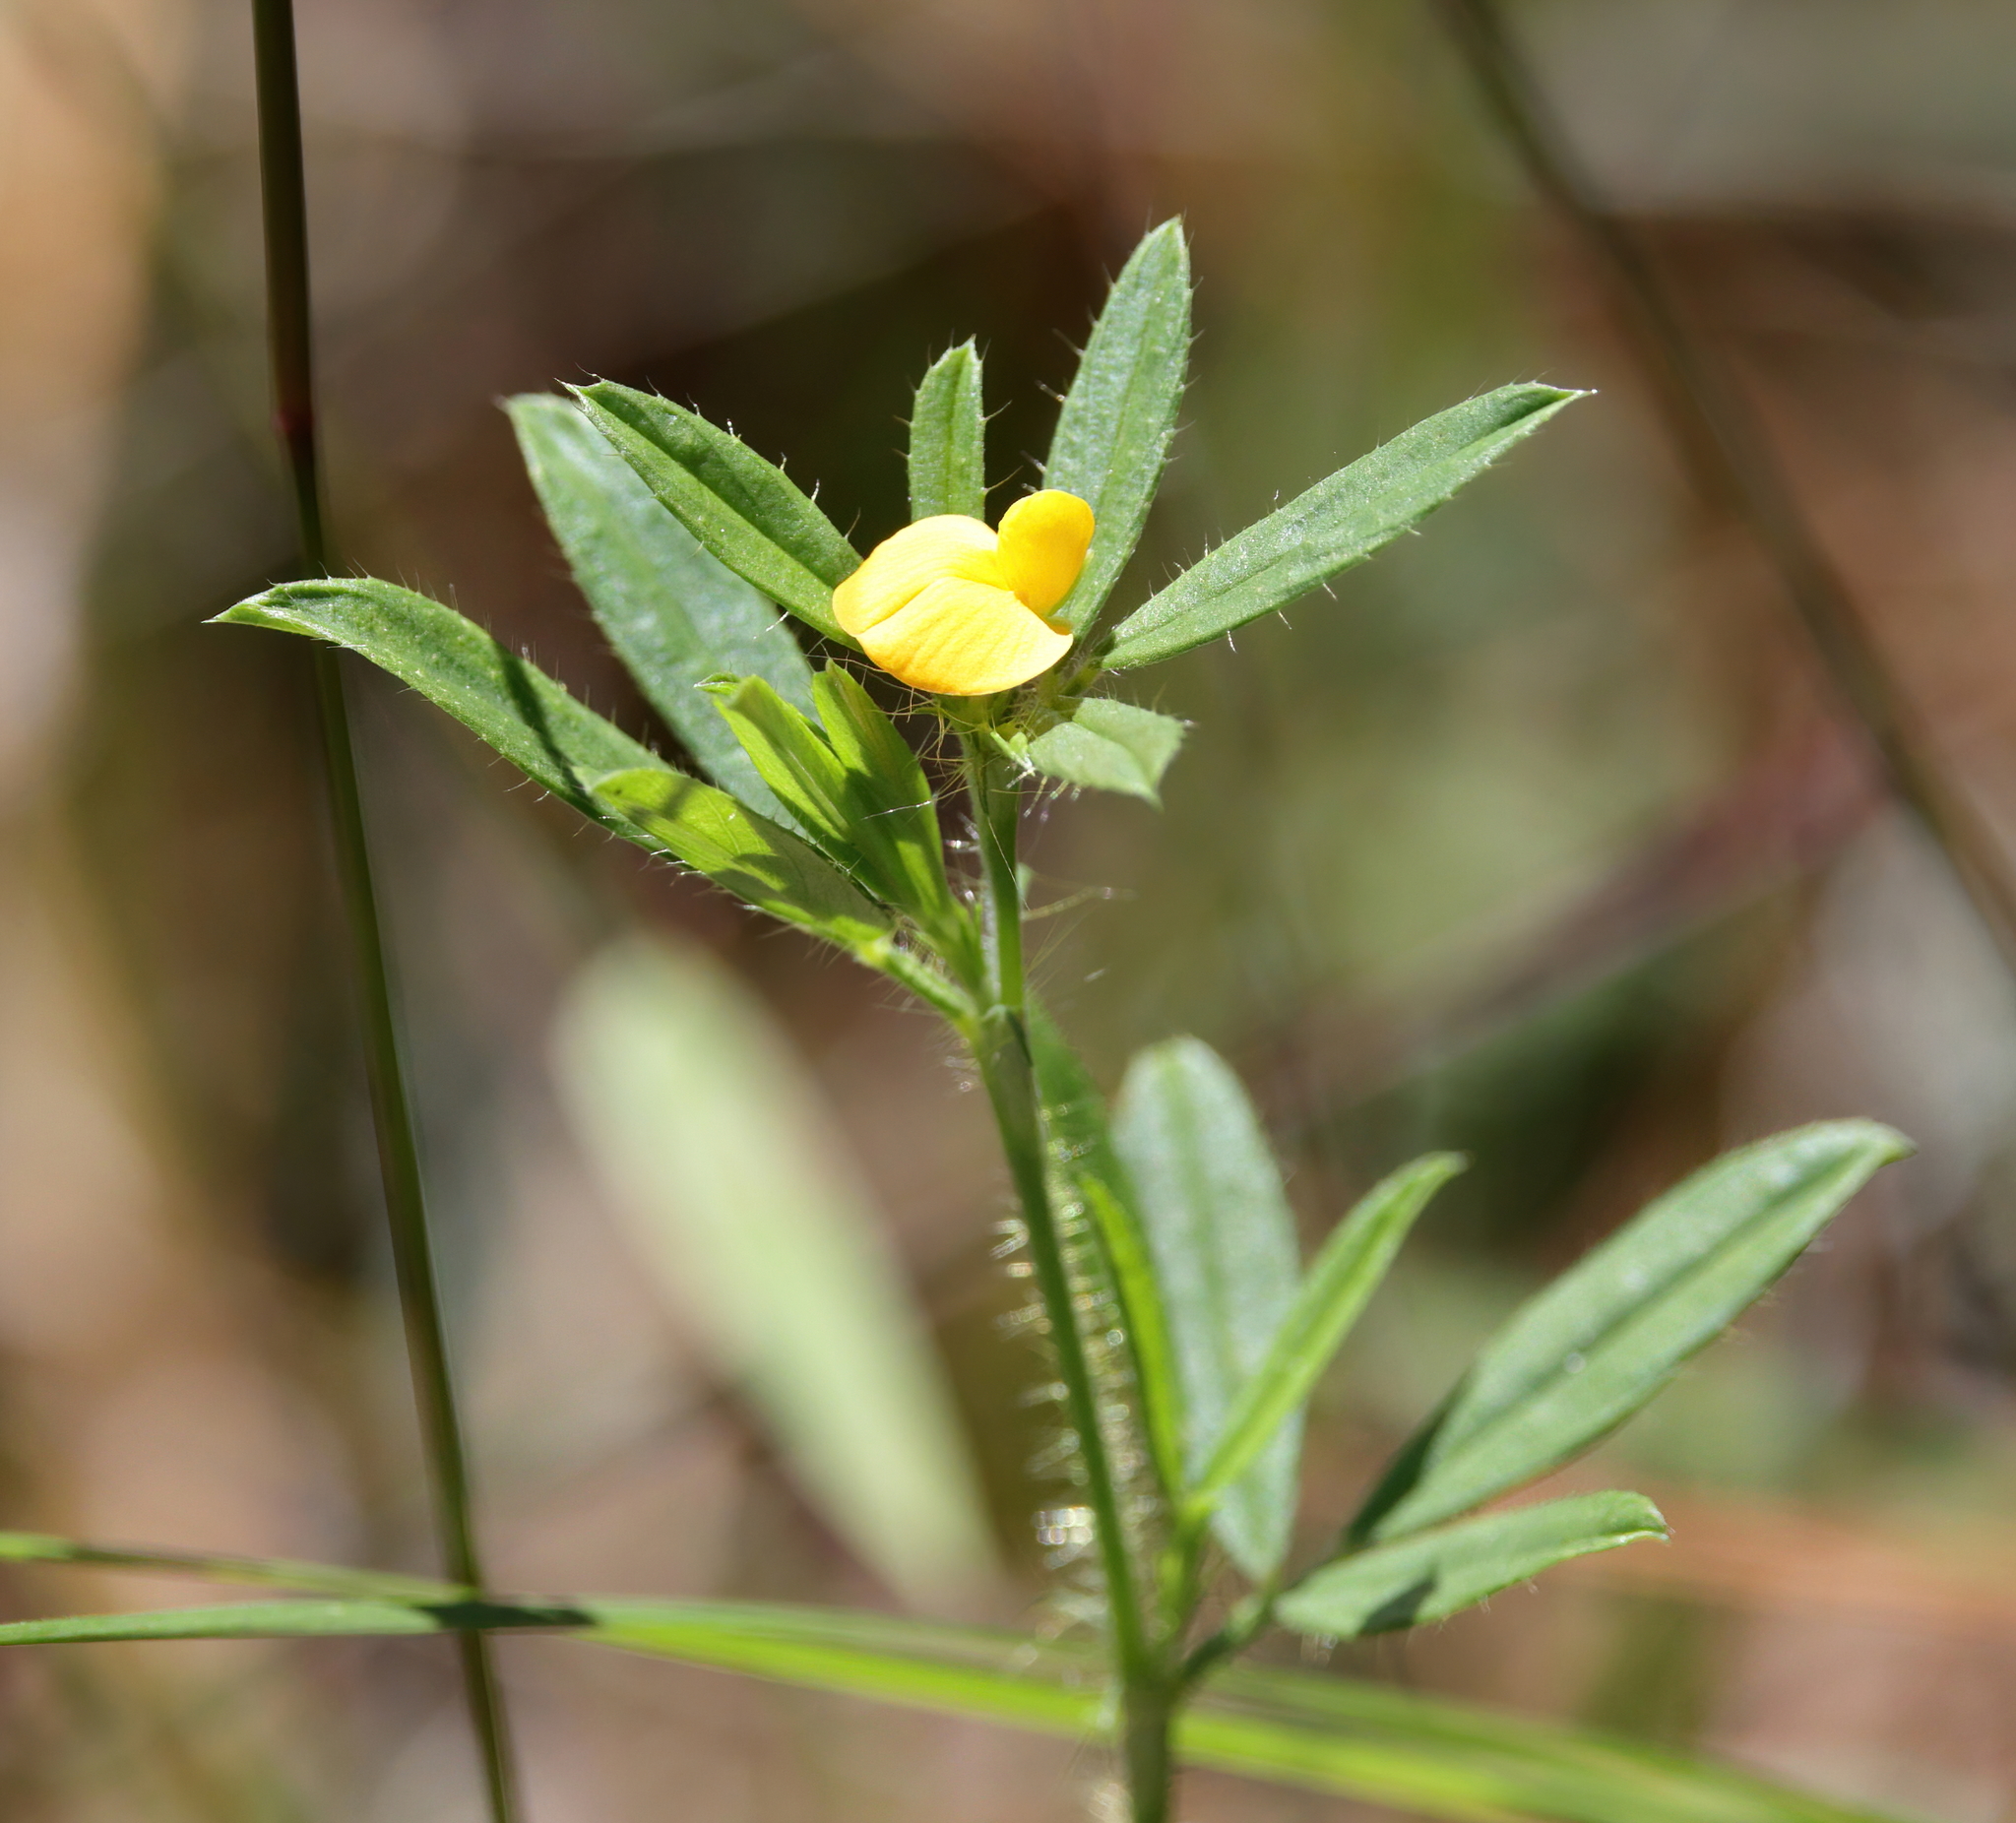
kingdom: Plantae
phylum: Tracheophyta
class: Magnoliopsida
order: Fabales
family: Fabaceae
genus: Stylosanthes
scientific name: Stylosanthes biflora
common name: Two-flower pencil-flower
